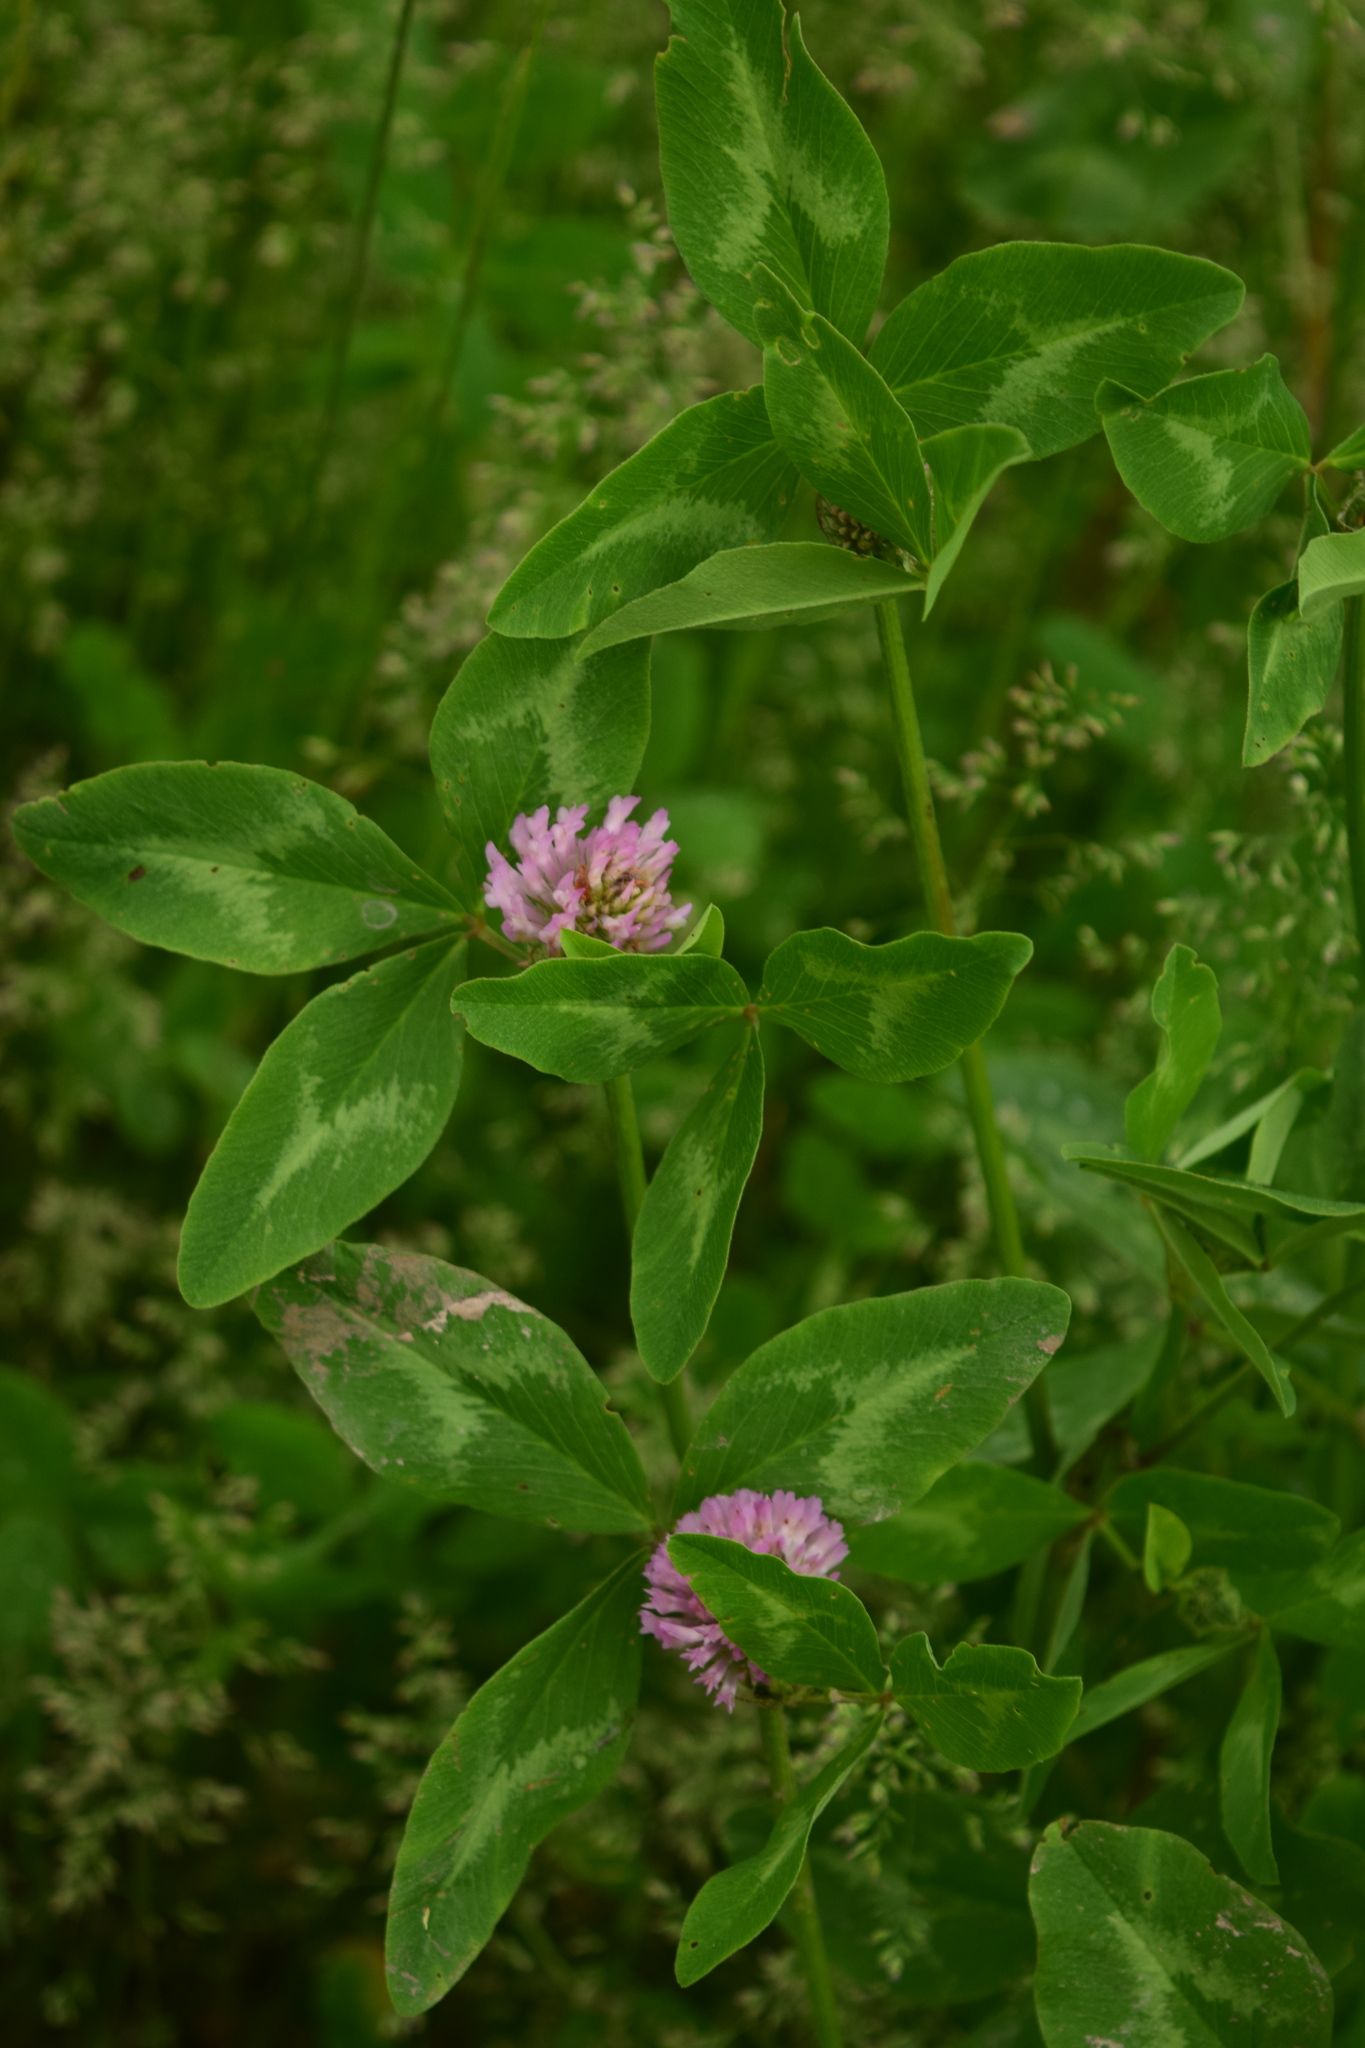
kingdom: Plantae
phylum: Tracheophyta
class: Magnoliopsida
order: Fabales
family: Fabaceae
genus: Trifolium
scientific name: Trifolium pratense
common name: Red clover
